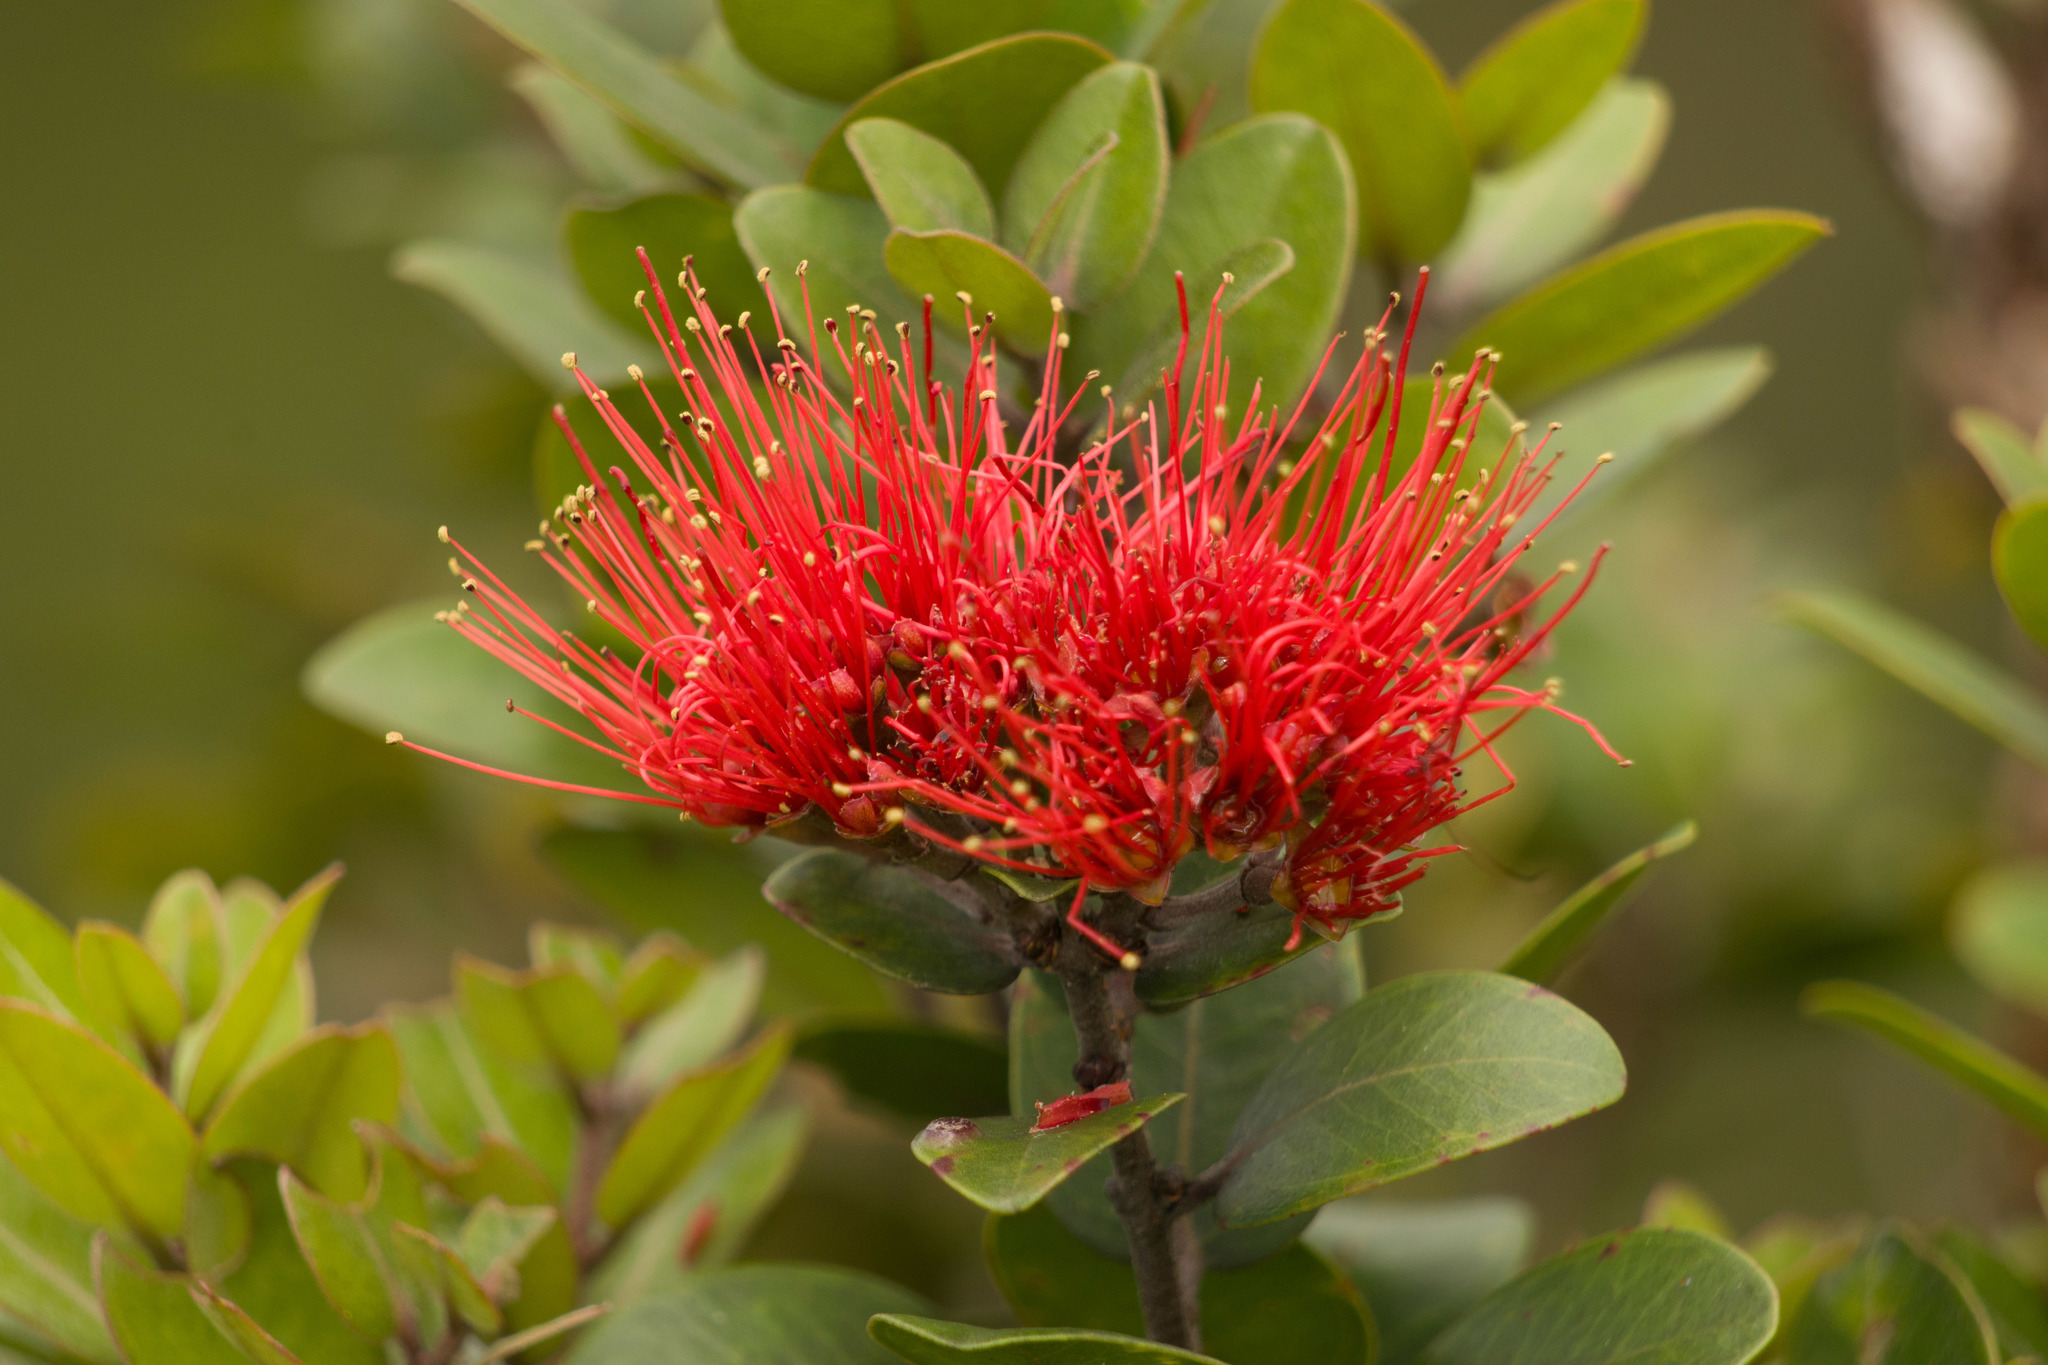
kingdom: Plantae
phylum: Tracheophyta
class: Magnoliopsida
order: Myrtales
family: Myrtaceae
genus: Metrosideros
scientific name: Metrosideros polymorpha
